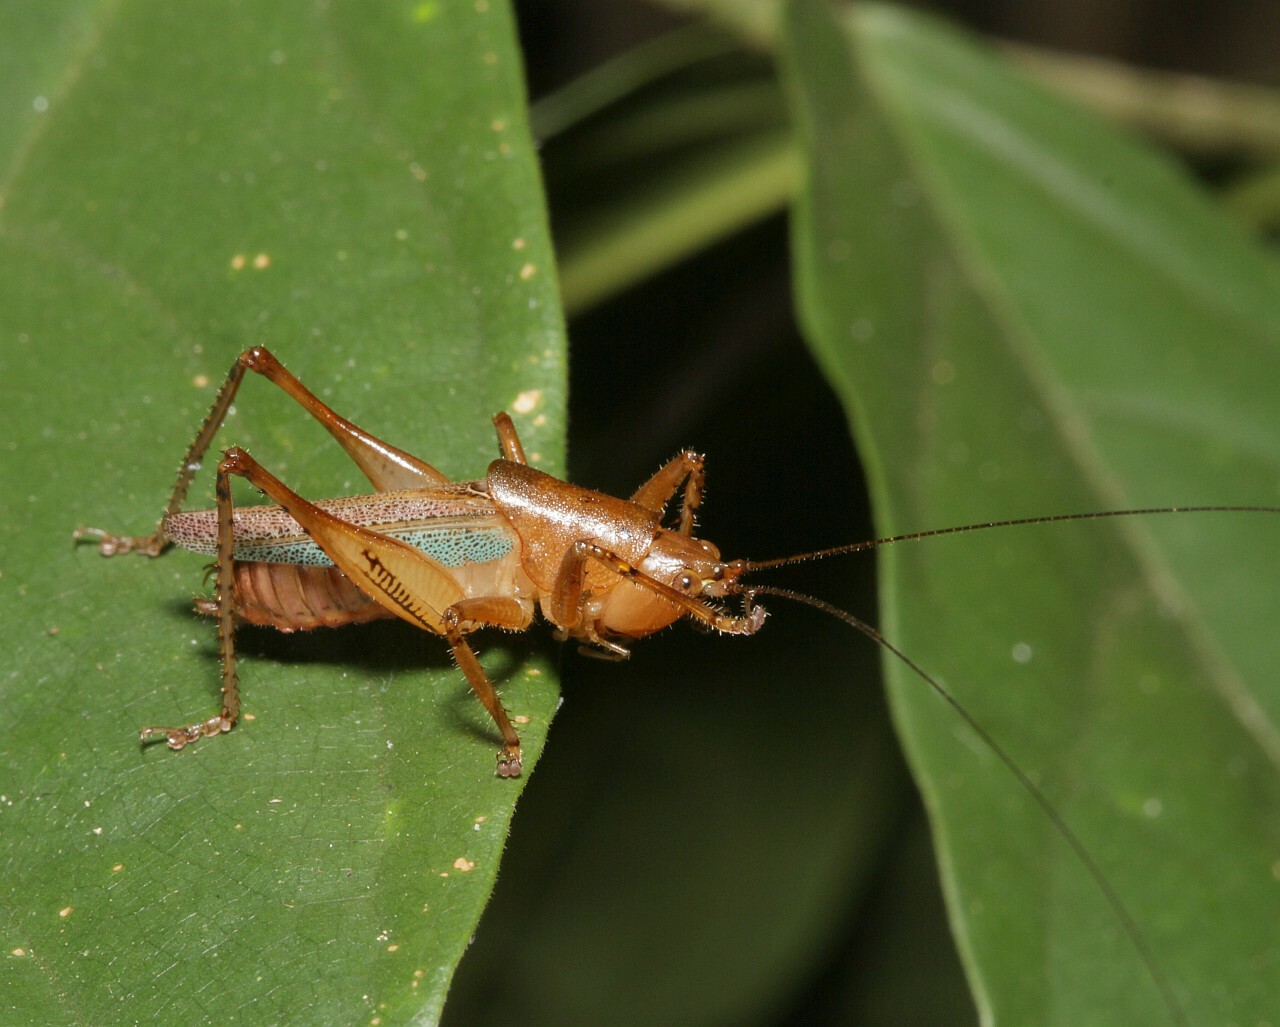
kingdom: Animalia
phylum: Arthropoda
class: Insecta
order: Orthoptera
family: Tettigoniidae
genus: Eschatoceras
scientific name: Eschatoceras bipunctatus
